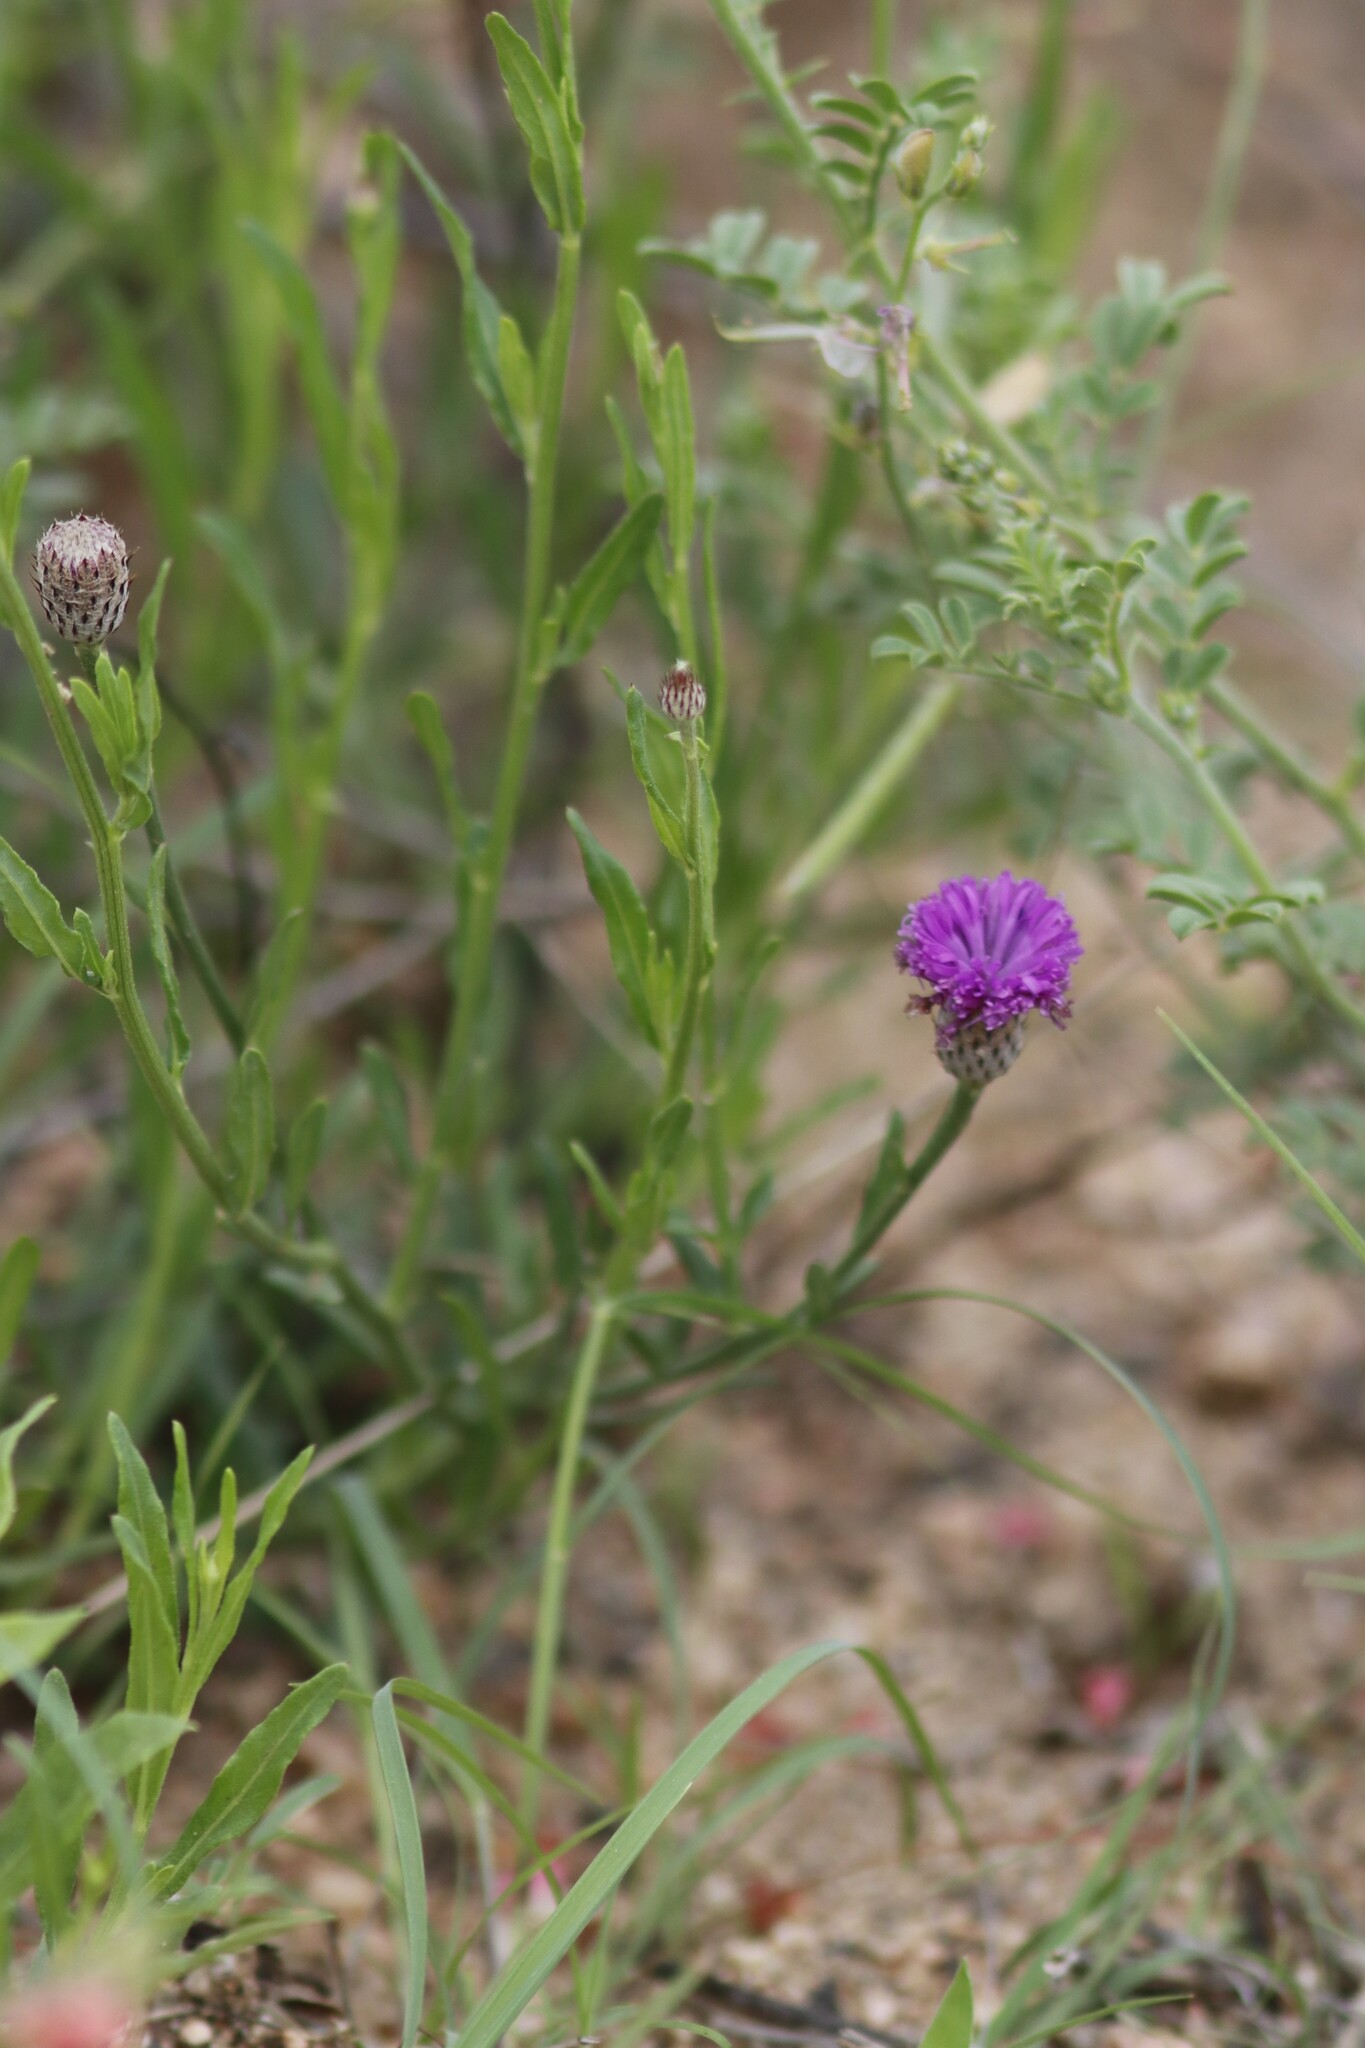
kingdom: Plantae
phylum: Tracheophyta
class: Magnoliopsida
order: Asterales
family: Asteraceae
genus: Parapolydora
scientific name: Parapolydora fastigiata
